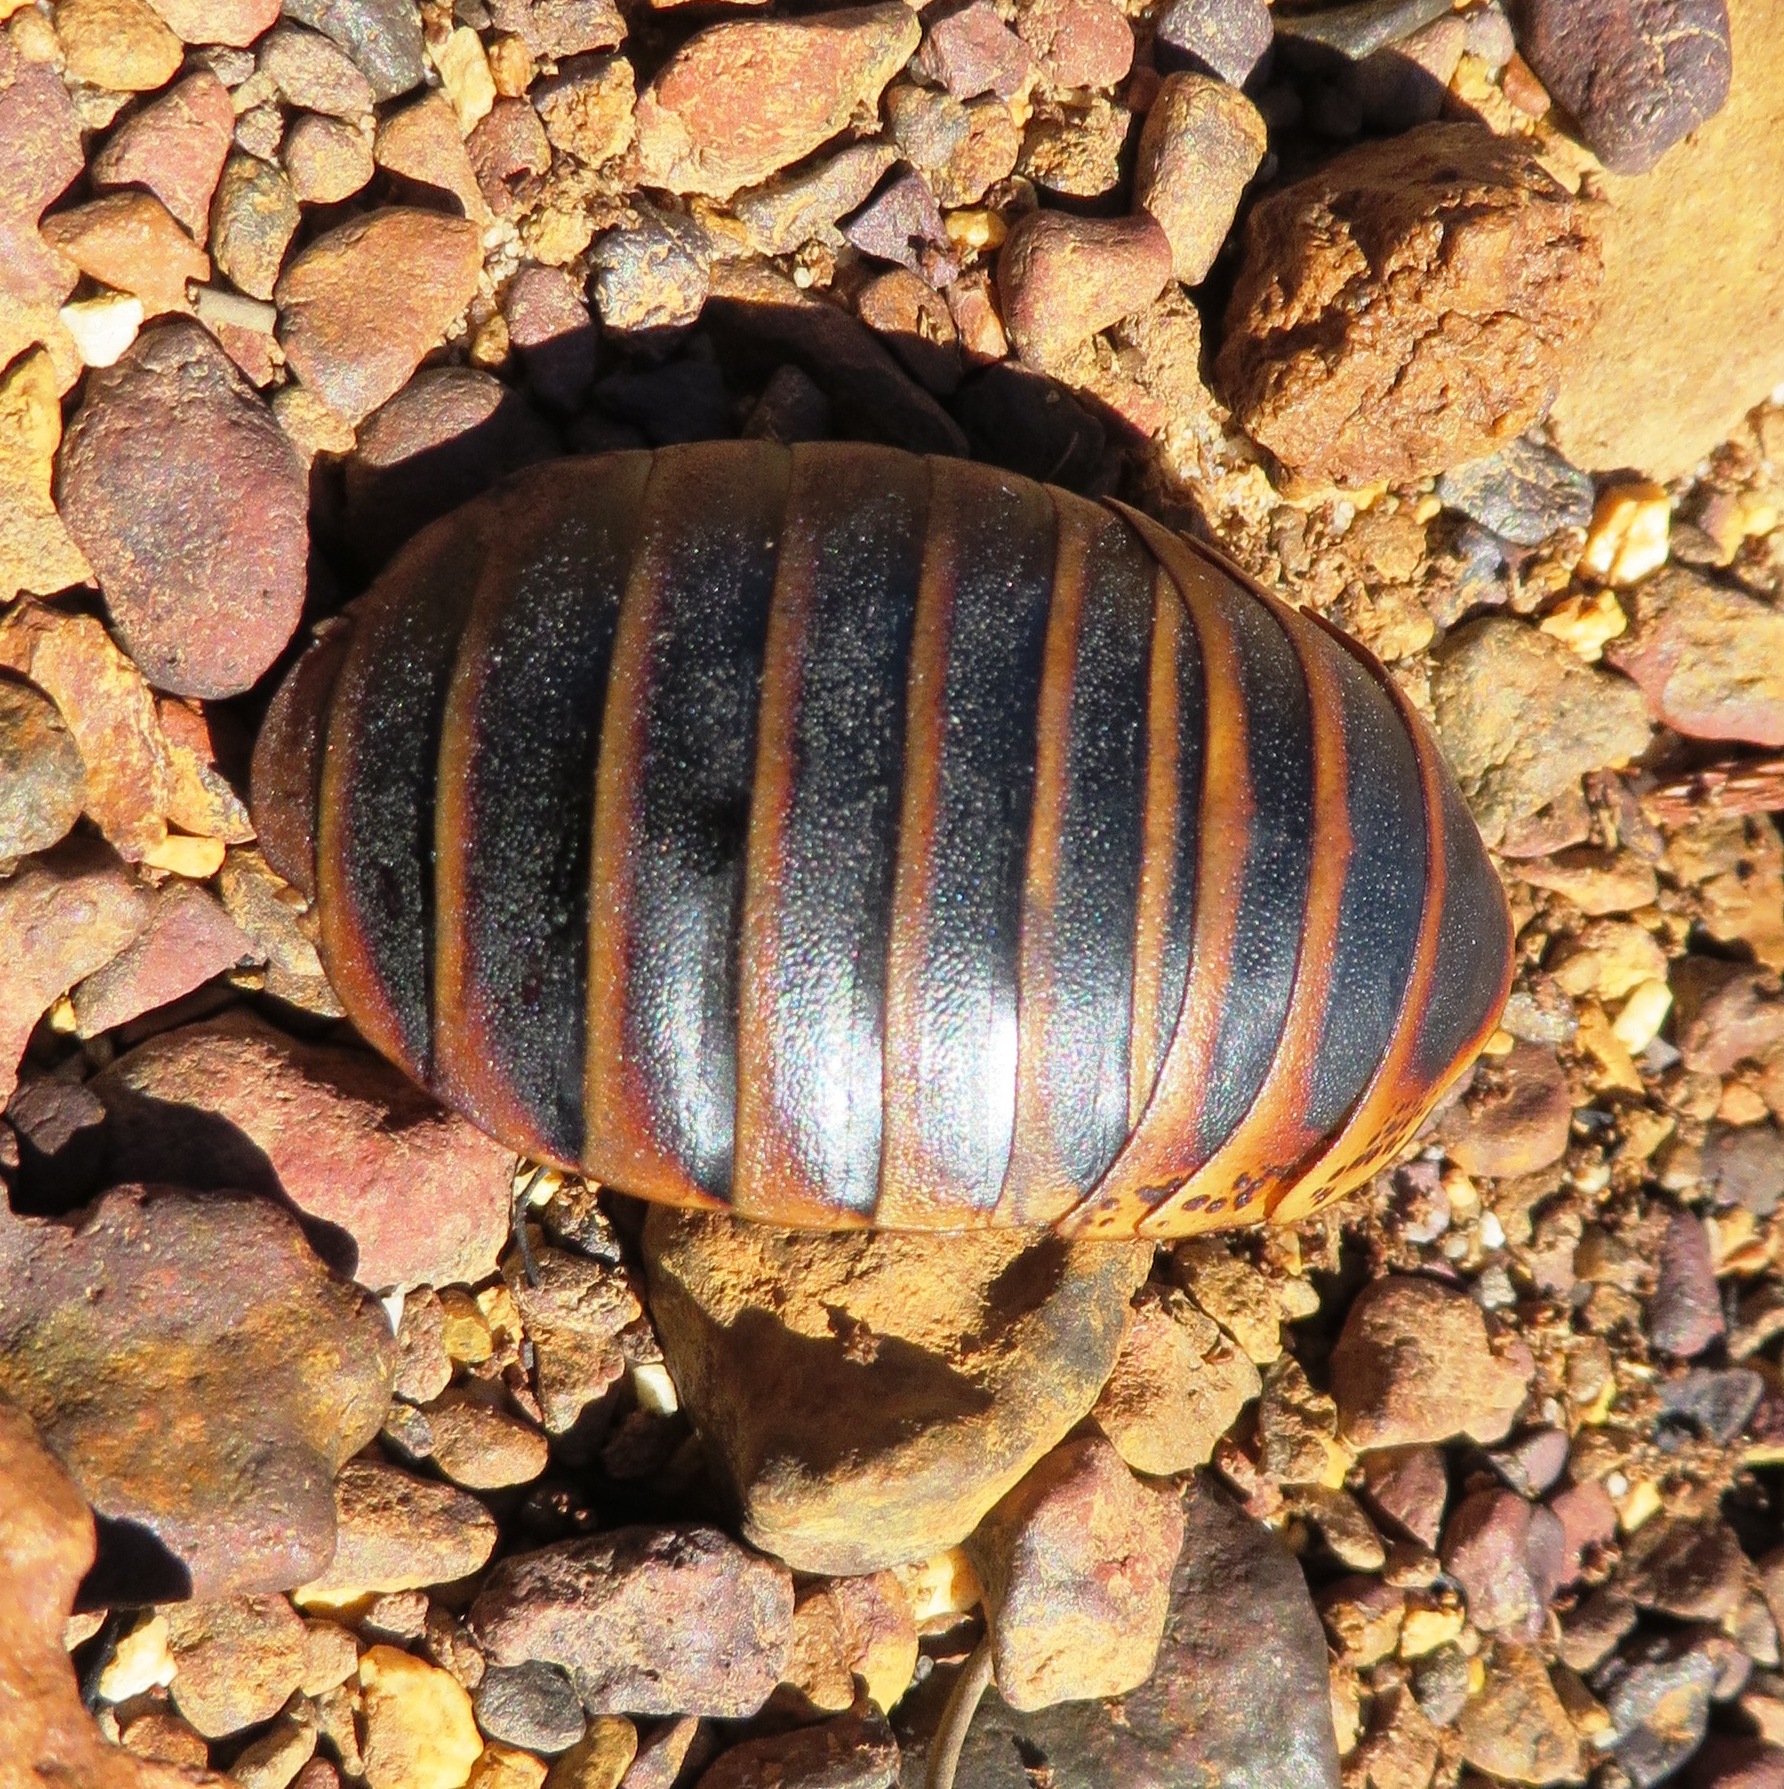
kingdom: Animalia
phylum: Arthropoda
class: Insecta
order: Blattodea
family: Blaberidae
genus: Aptera
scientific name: Aptera fusca
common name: Cape mountain cockroach
